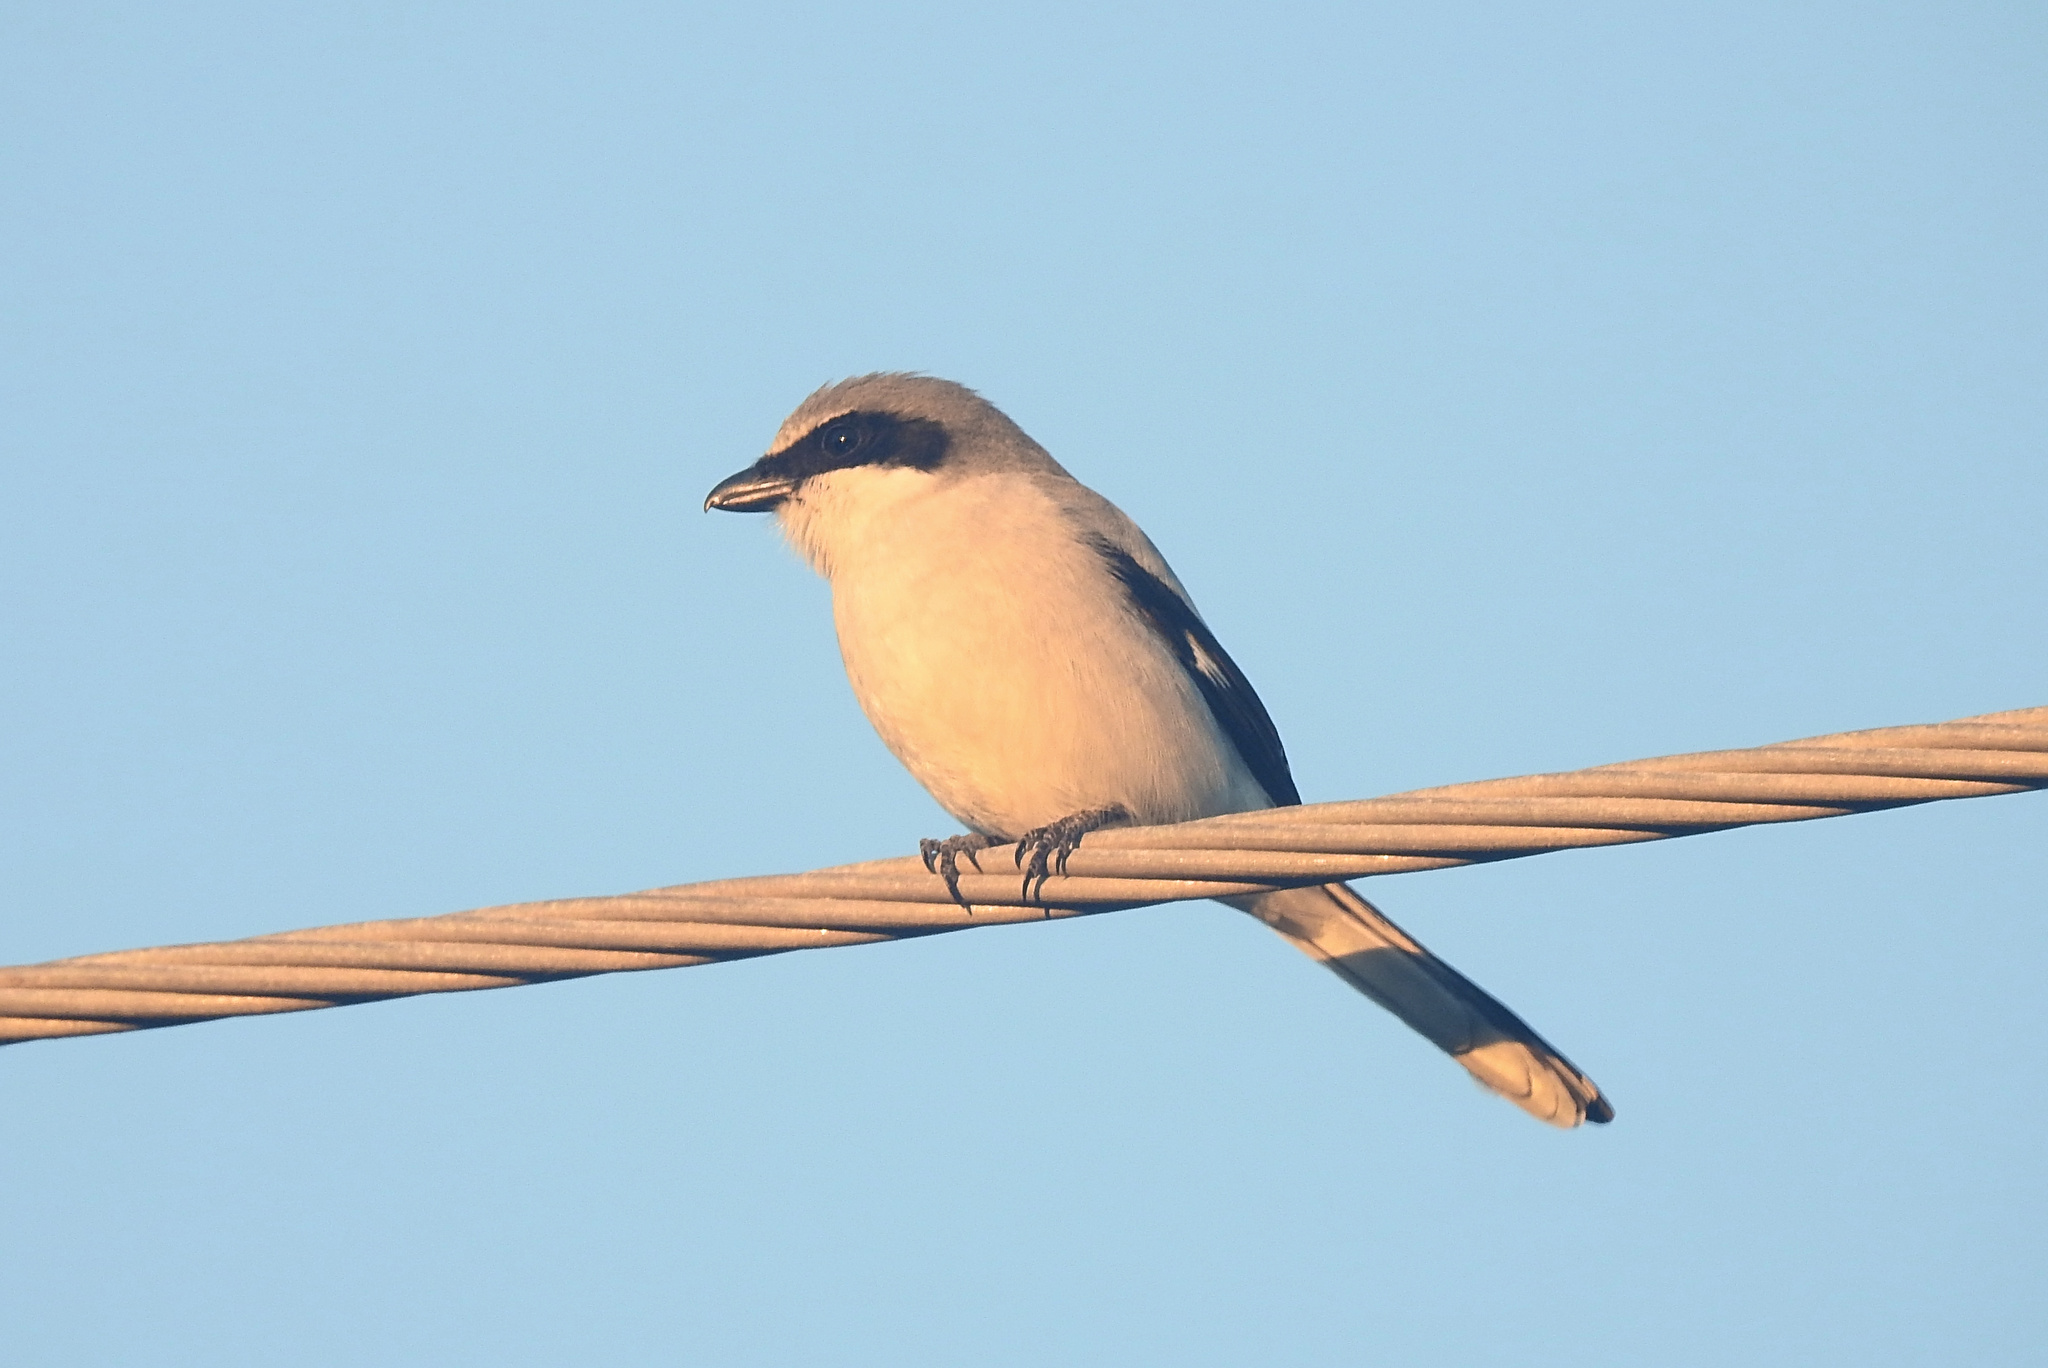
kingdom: Animalia
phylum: Chordata
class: Aves
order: Passeriformes
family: Laniidae
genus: Lanius
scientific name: Lanius ludovicianus
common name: Loggerhead shrike
